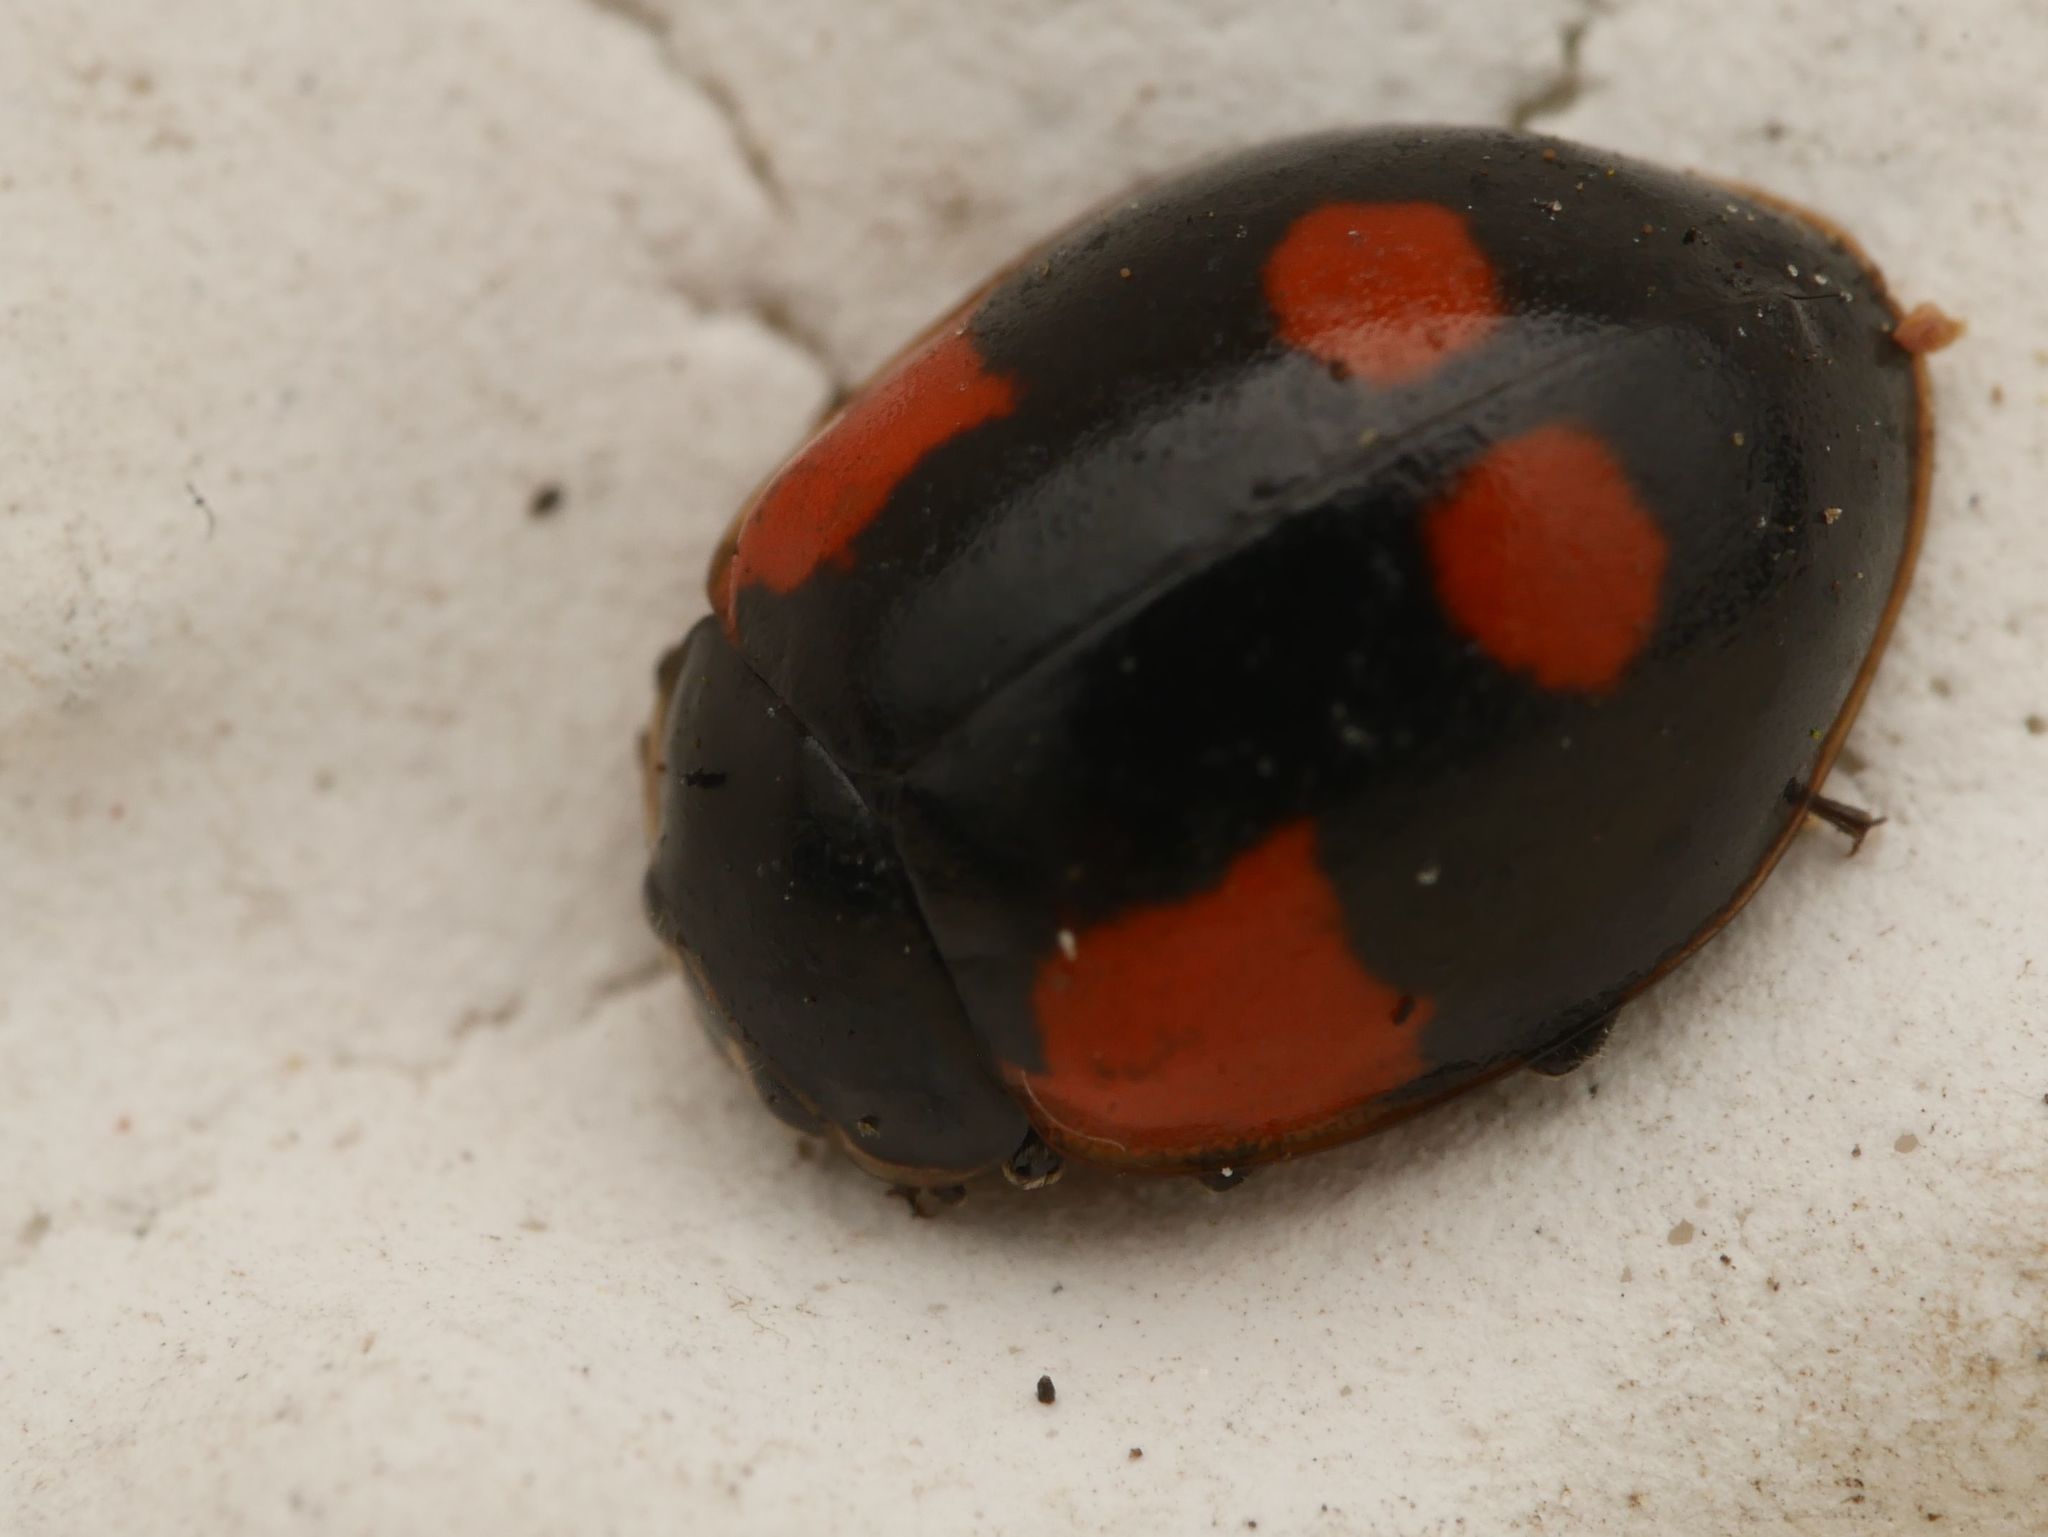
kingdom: Animalia
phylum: Arthropoda
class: Insecta
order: Coleoptera
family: Coccinellidae
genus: Adalia
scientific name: Adalia bipunctata
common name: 2-spot ladybird
